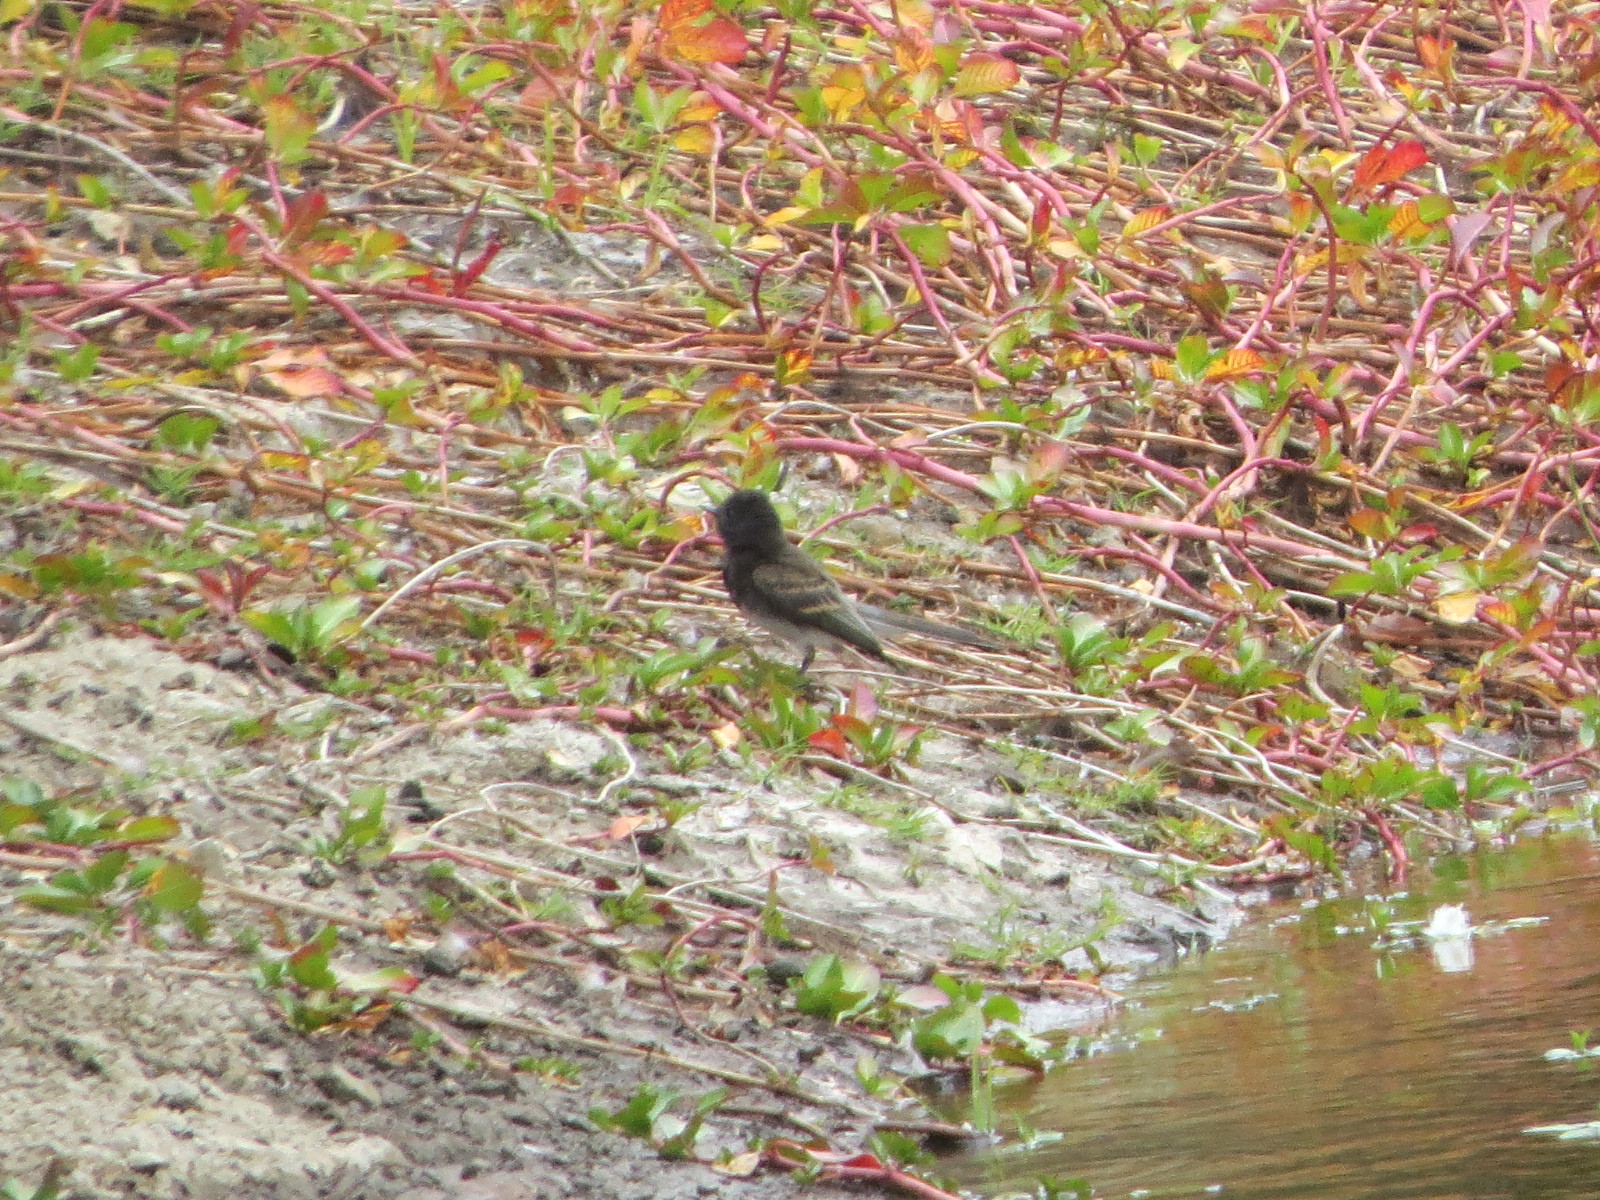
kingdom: Animalia
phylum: Chordata
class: Aves
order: Passeriformes
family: Tyrannidae
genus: Sayornis
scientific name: Sayornis nigricans
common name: Black phoebe
